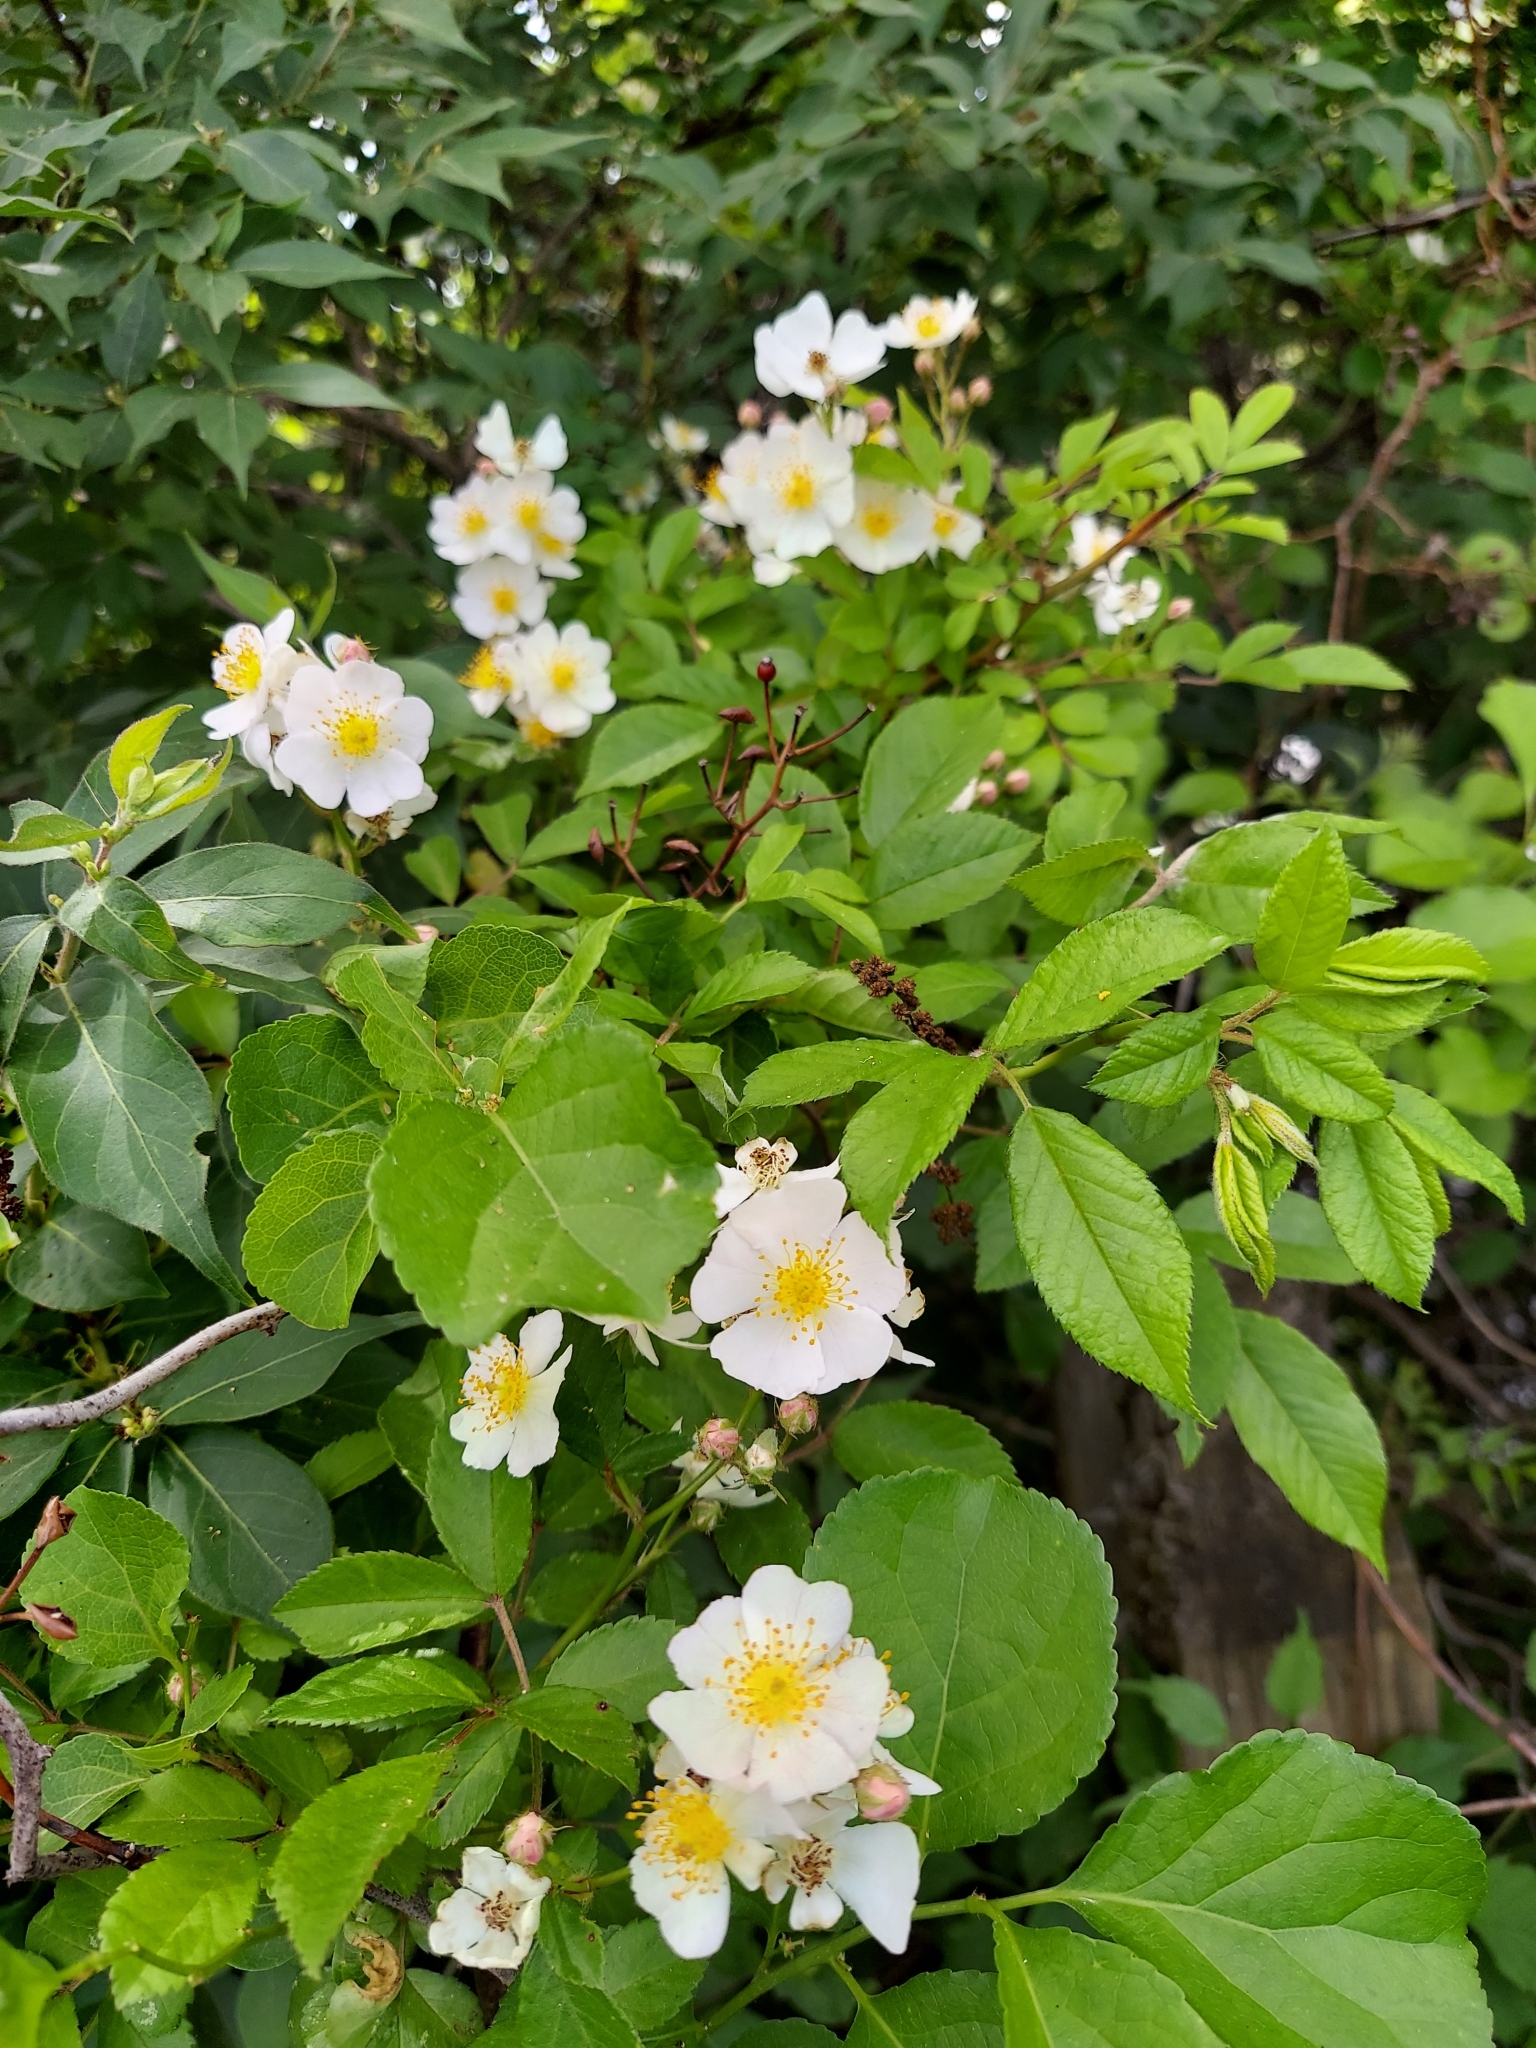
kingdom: Plantae
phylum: Tracheophyta
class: Magnoliopsida
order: Rosales
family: Rosaceae
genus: Rosa
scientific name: Rosa multiflora
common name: Multiflora rose
